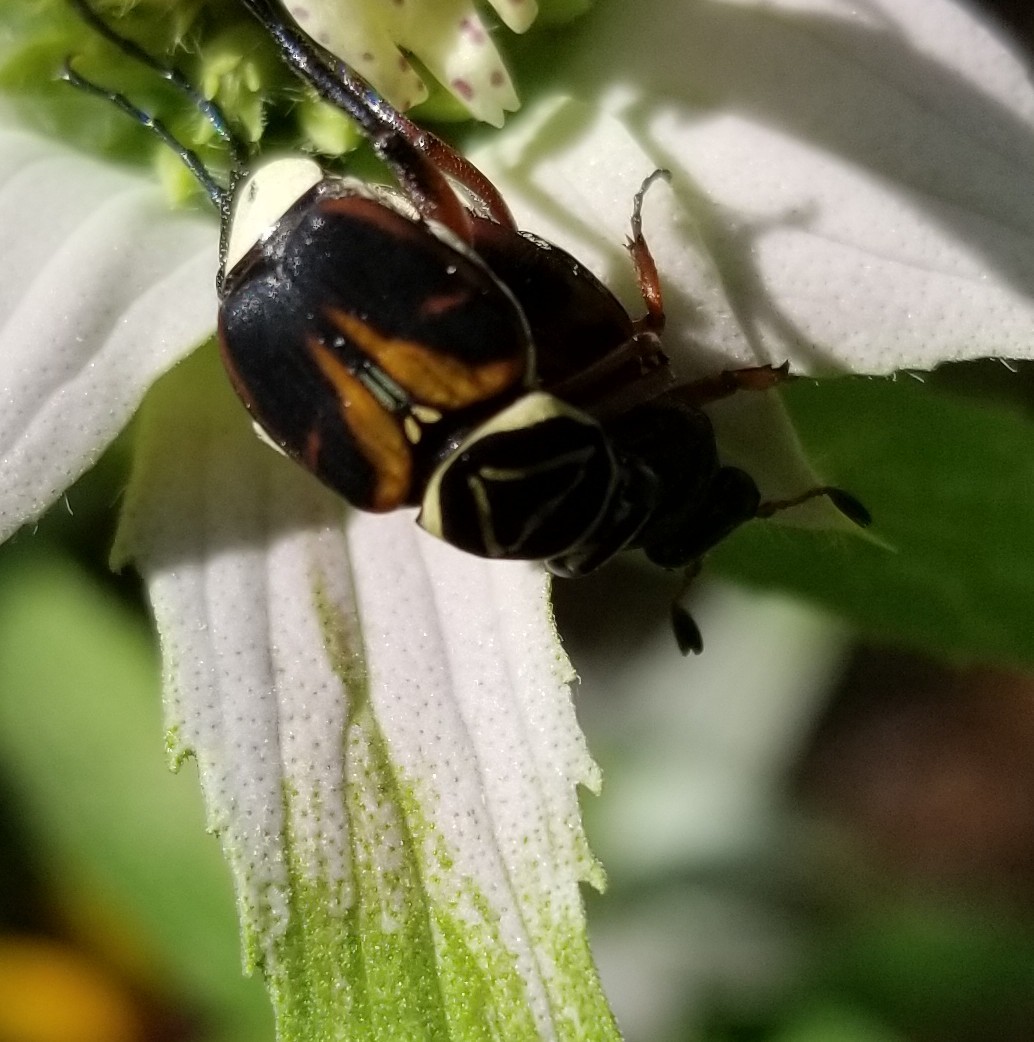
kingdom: Animalia
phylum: Arthropoda
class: Insecta
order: Coleoptera
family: Scarabaeidae
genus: Trigonopeltastes
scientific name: Trigonopeltastes delta
